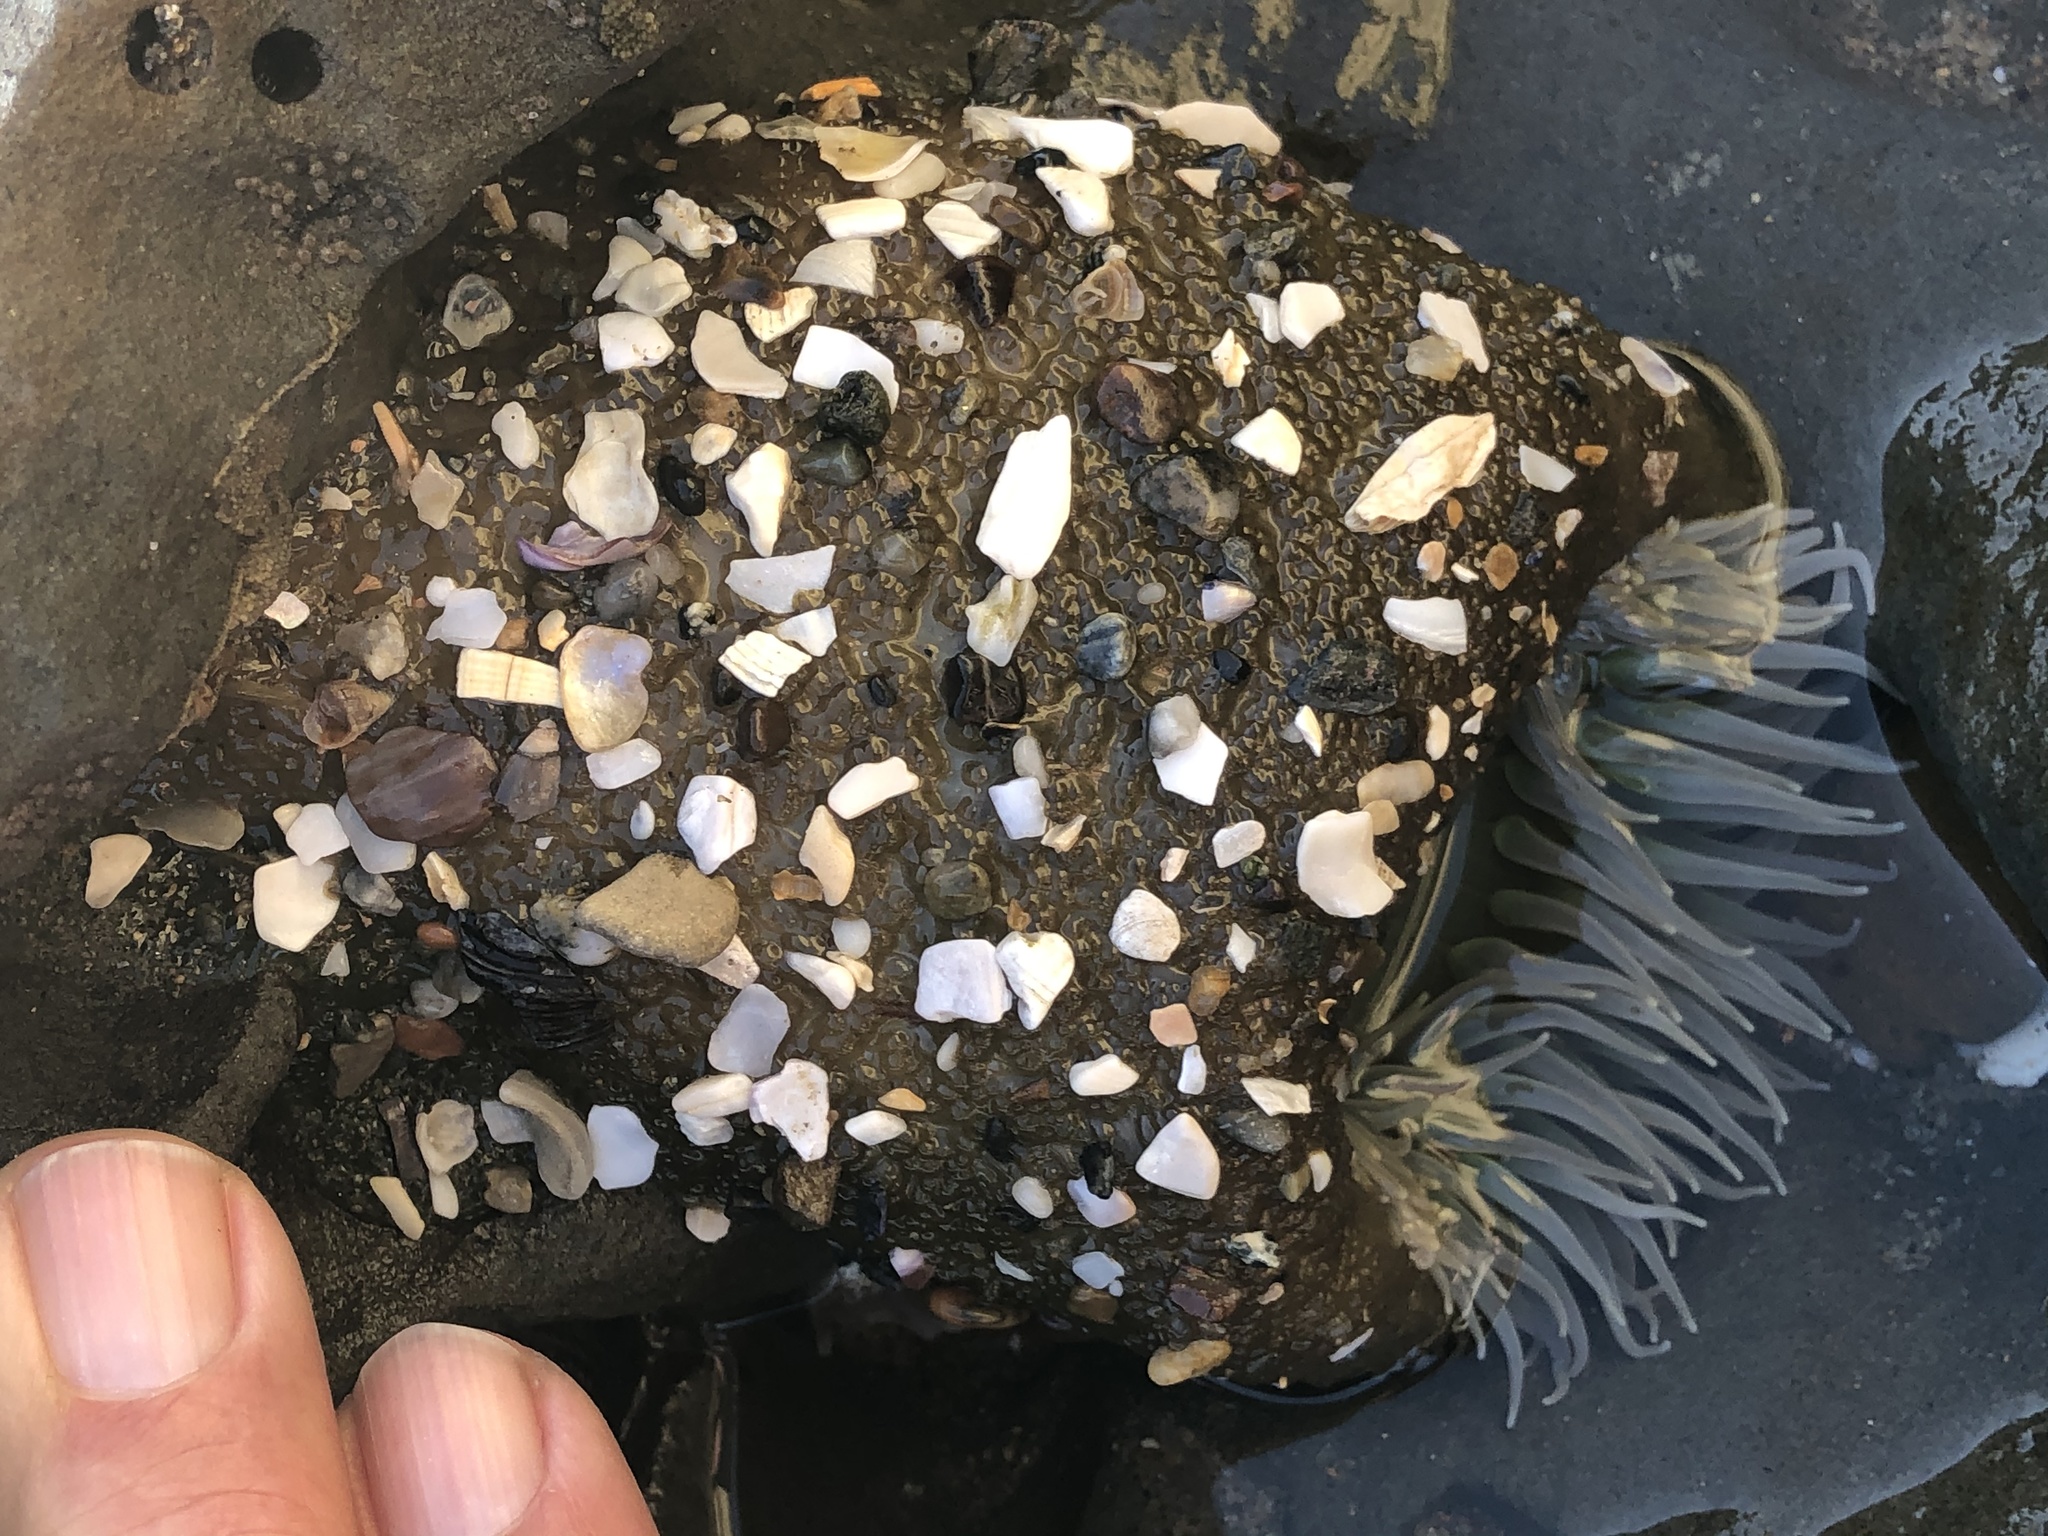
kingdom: Animalia
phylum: Cnidaria
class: Anthozoa
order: Actiniaria
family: Actiniidae
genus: Anthopleura
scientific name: Anthopleura xanthogrammica
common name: Giant green anemone
